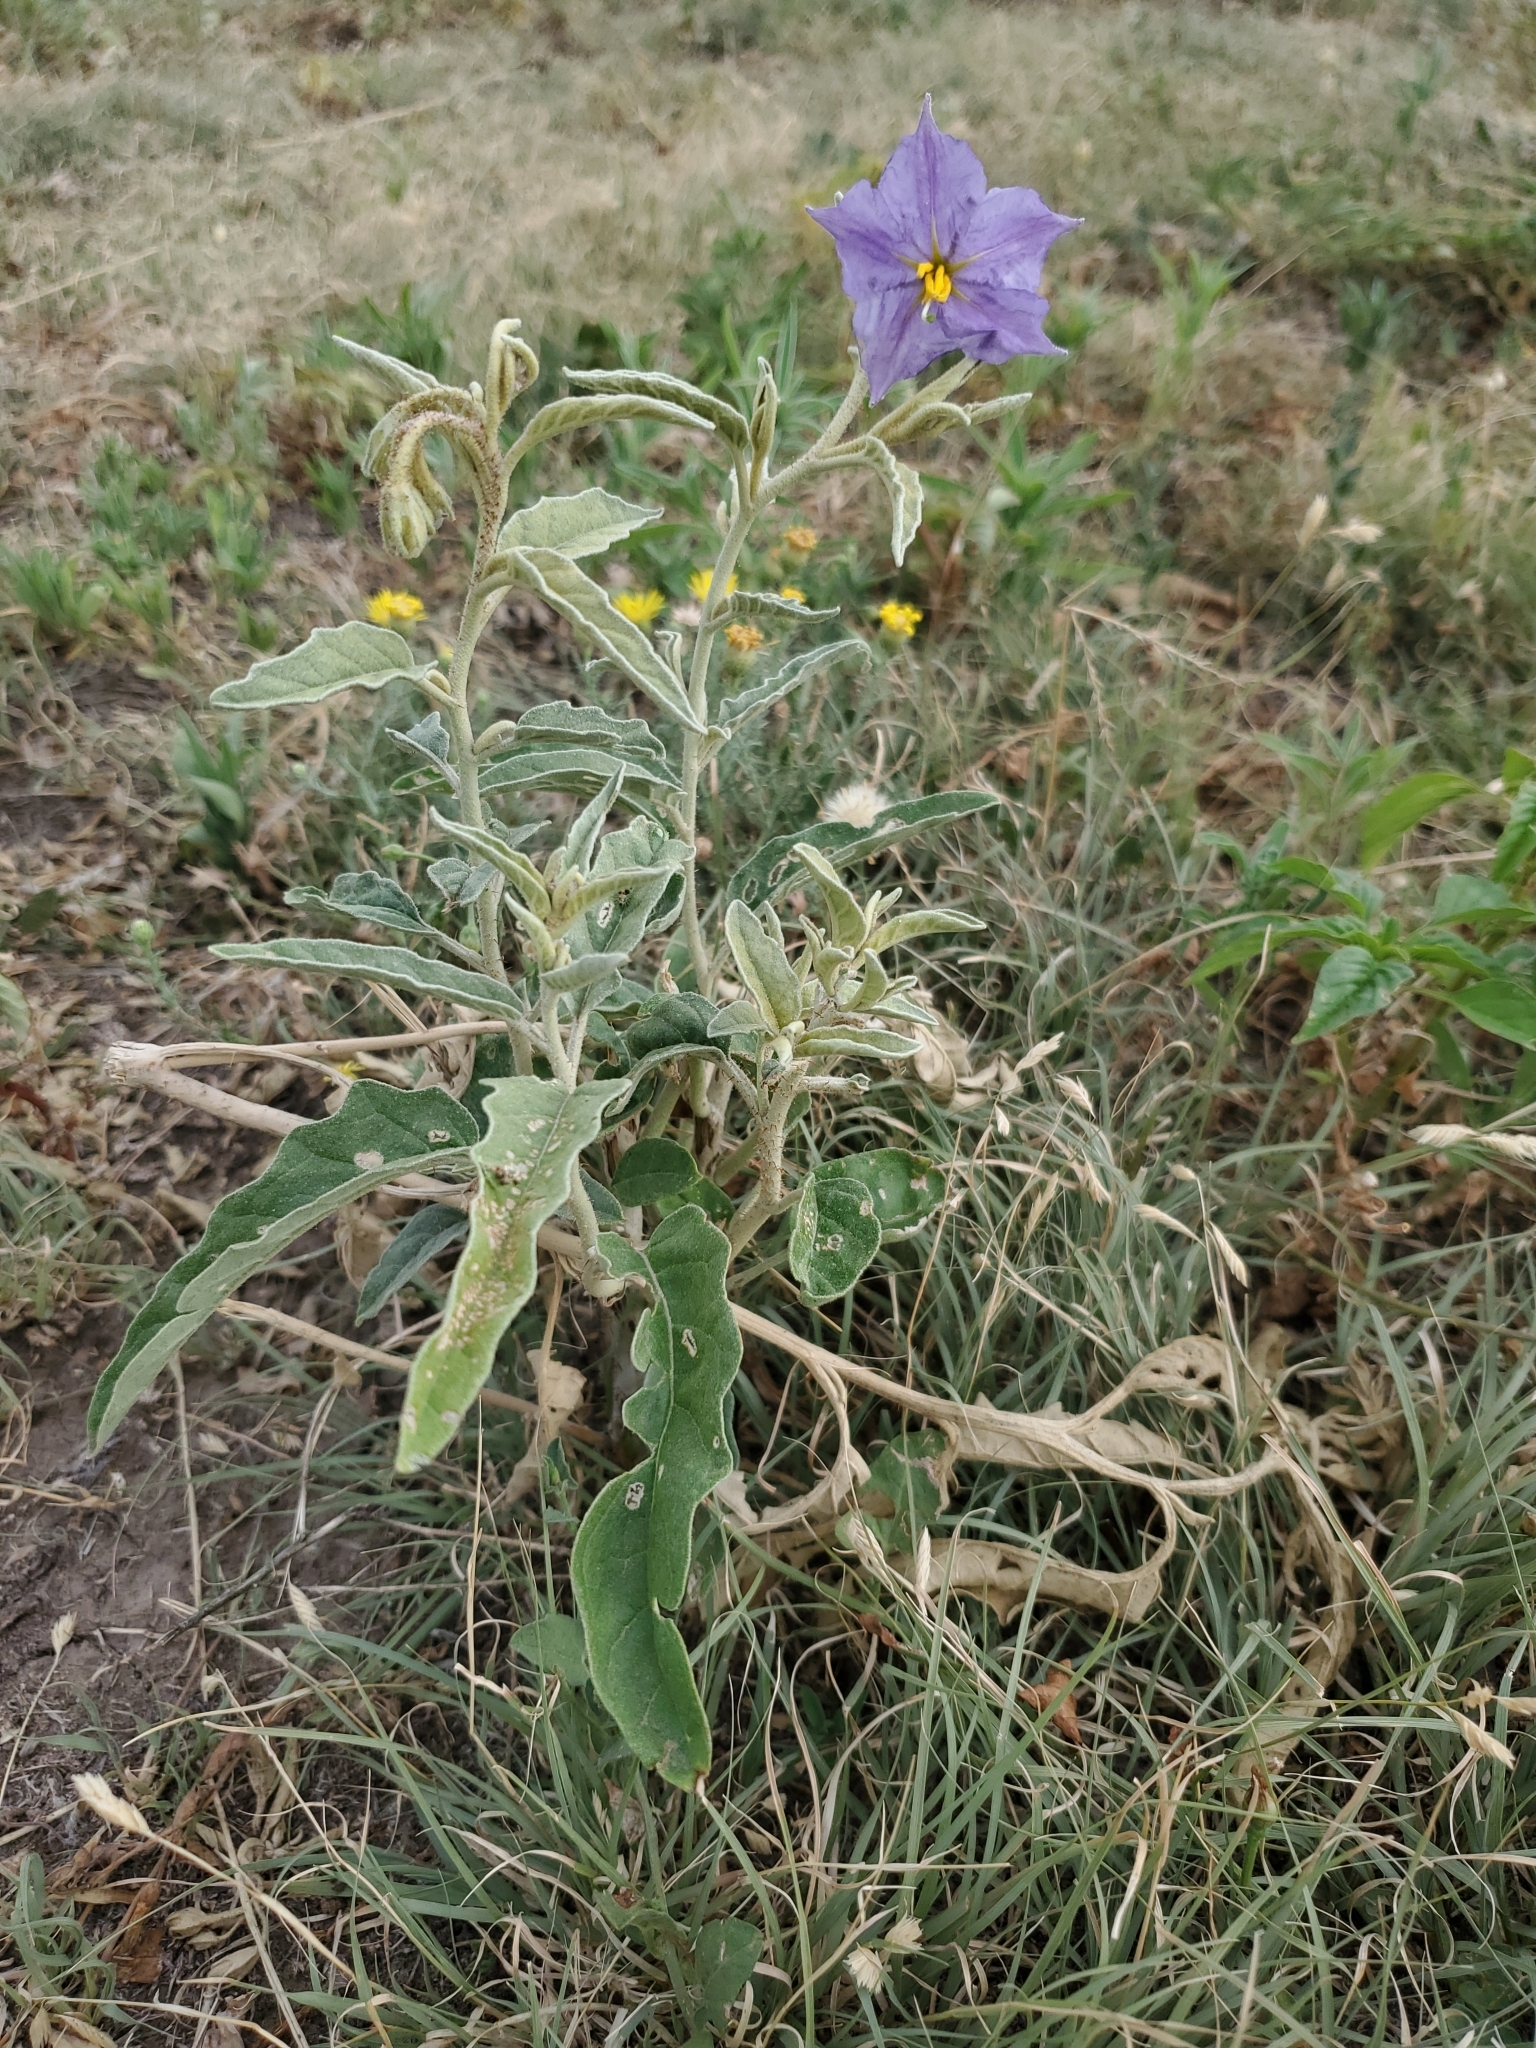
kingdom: Plantae
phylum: Tracheophyta
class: Magnoliopsida
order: Solanales
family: Solanaceae
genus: Solanum
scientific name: Solanum elaeagnifolium
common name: Silverleaf nightshade
